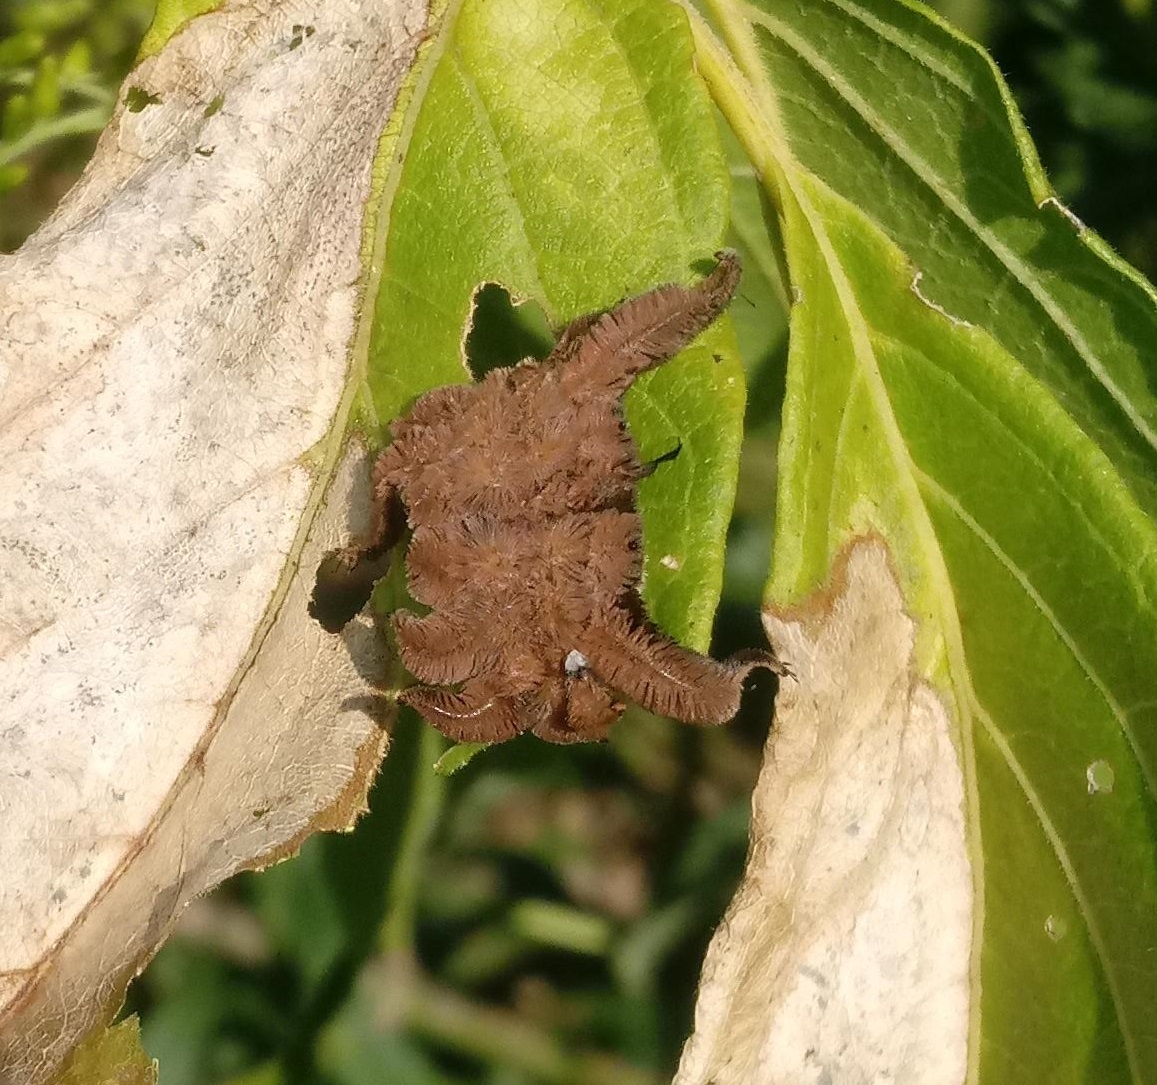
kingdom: Animalia
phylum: Arthropoda
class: Insecta
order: Lepidoptera
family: Limacodidae
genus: Phobetron
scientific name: Phobetron pithecium
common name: Hag moth
